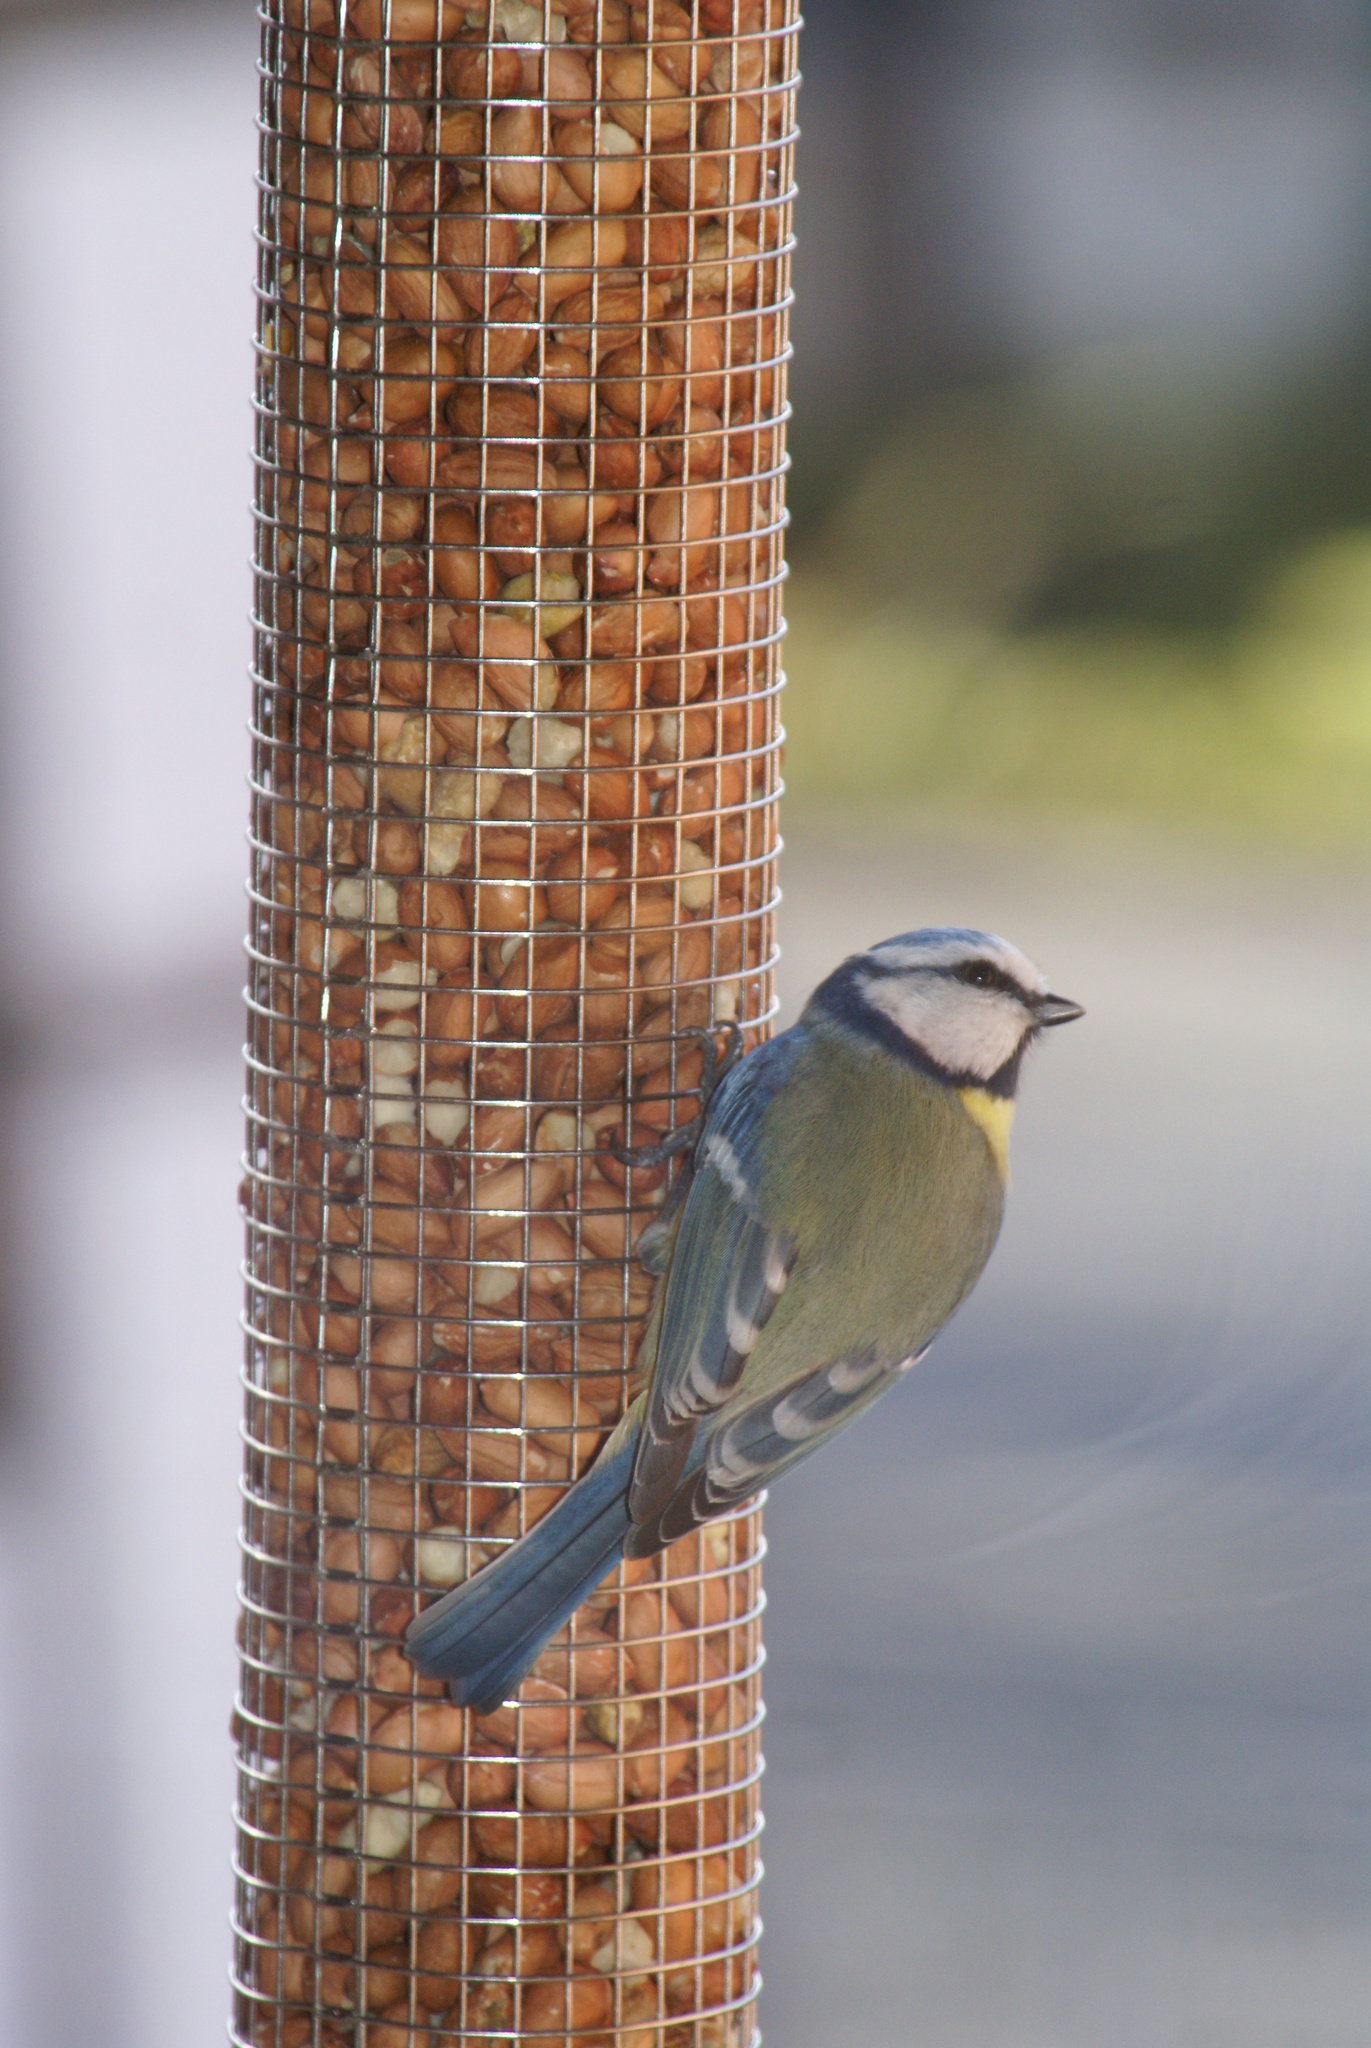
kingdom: Animalia
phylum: Chordata
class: Aves
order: Passeriformes
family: Paridae
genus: Cyanistes
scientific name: Cyanistes caeruleus
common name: Eurasian blue tit
